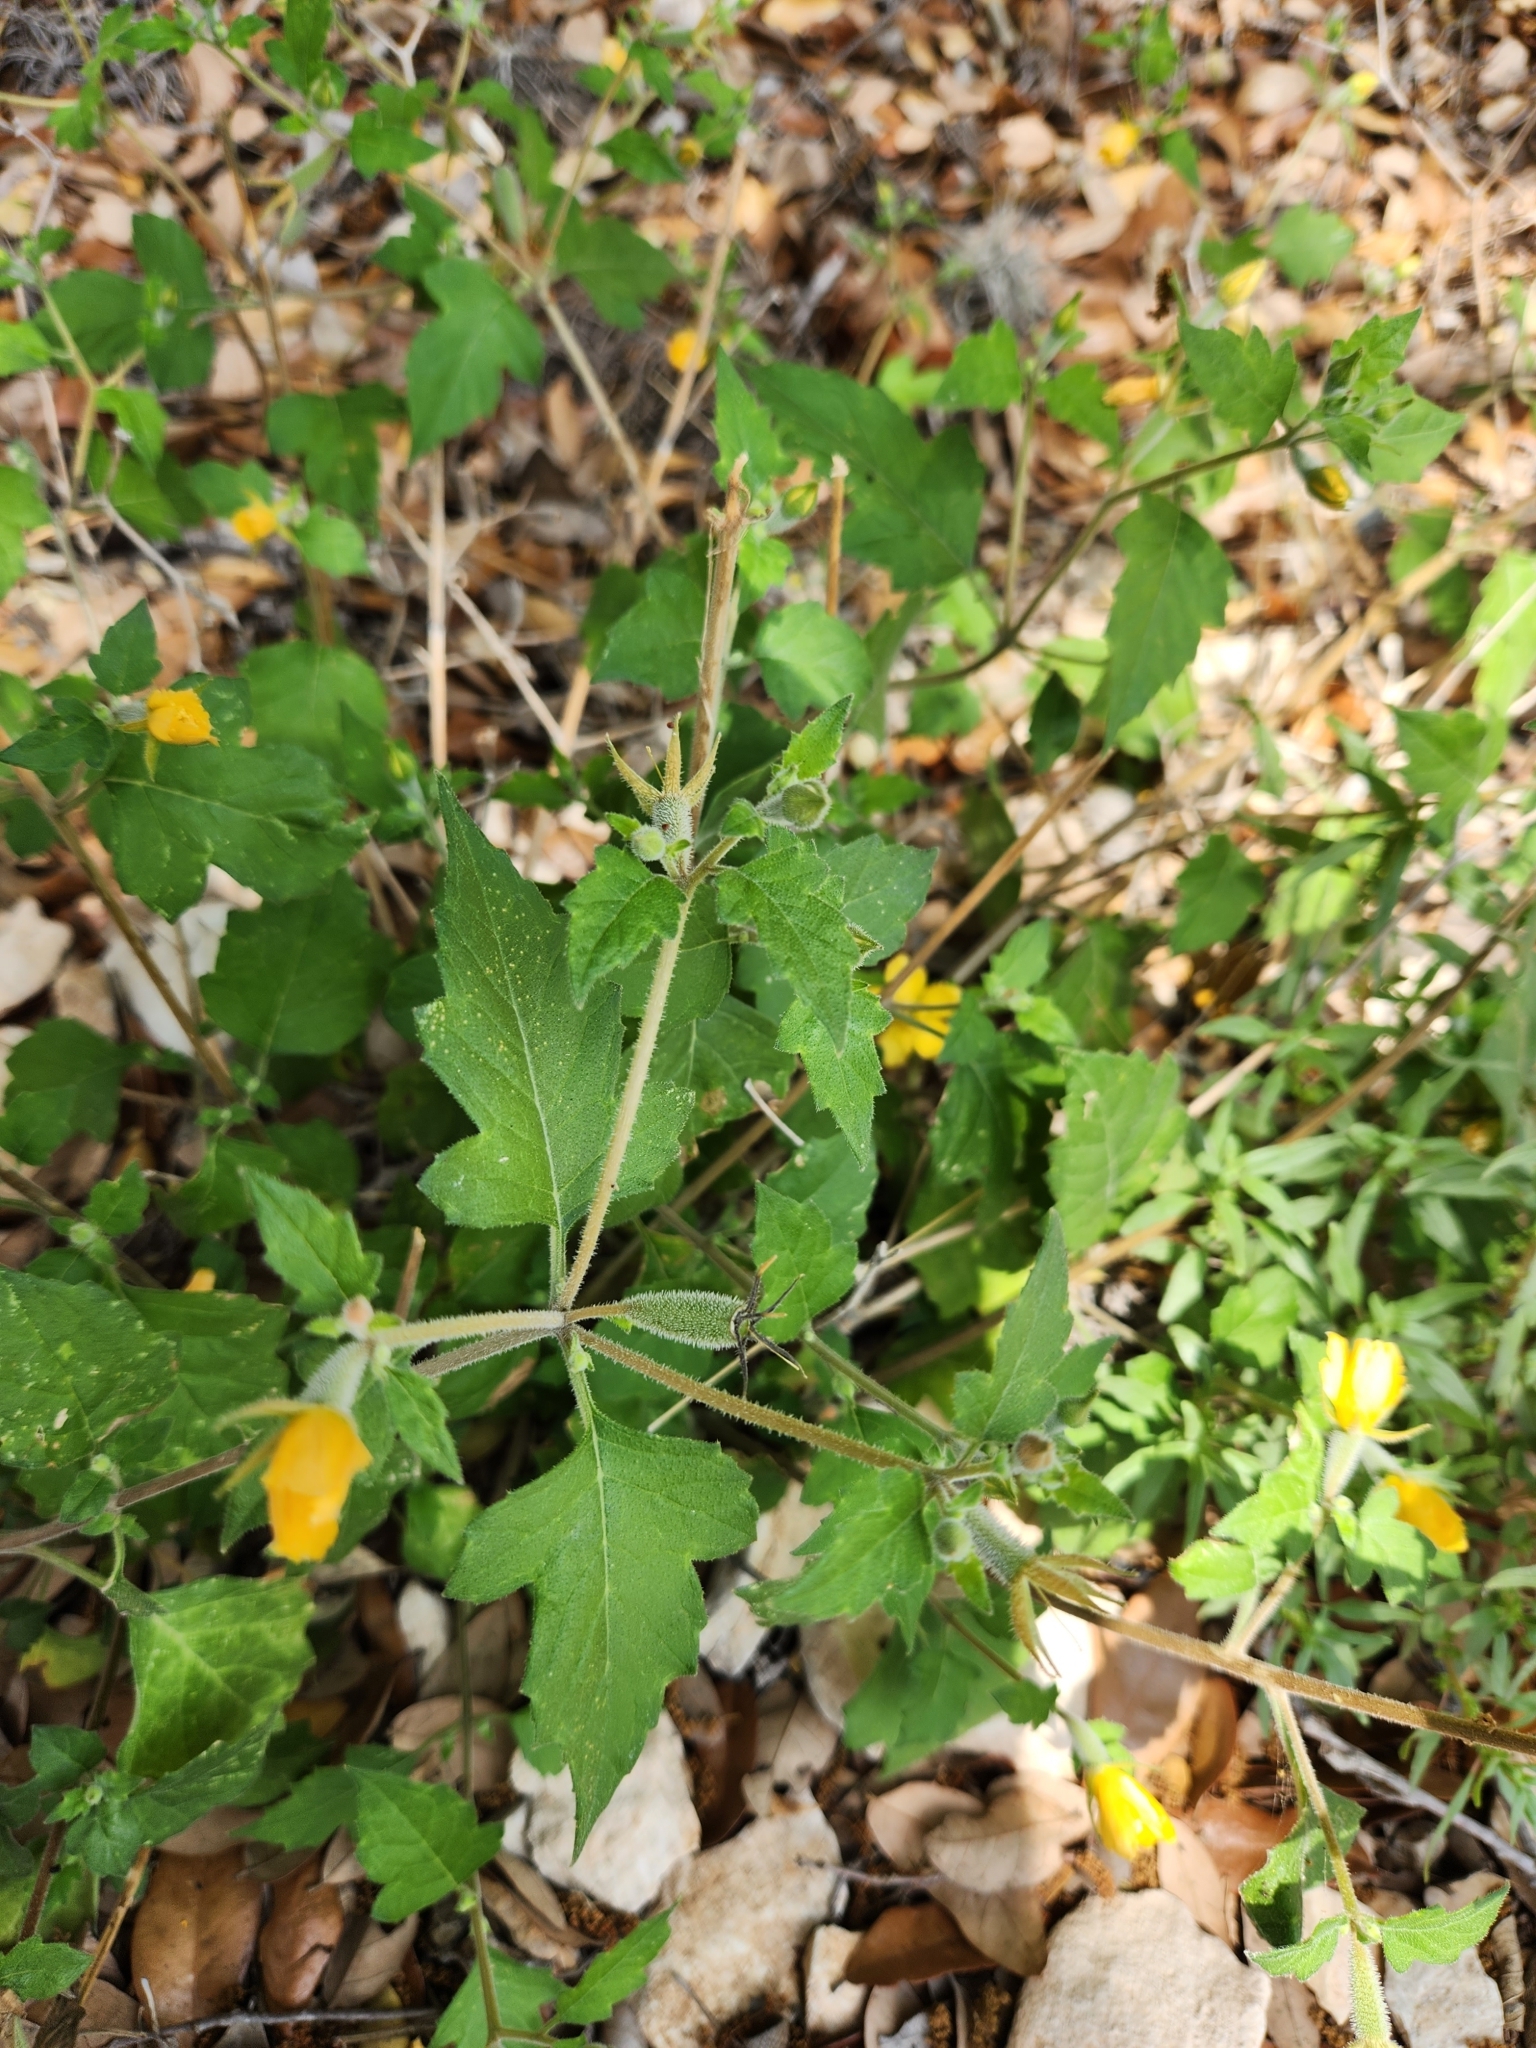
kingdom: Plantae
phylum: Tracheophyta
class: Magnoliopsida
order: Cornales
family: Loasaceae
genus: Mentzelia
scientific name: Mentzelia oligosperma
